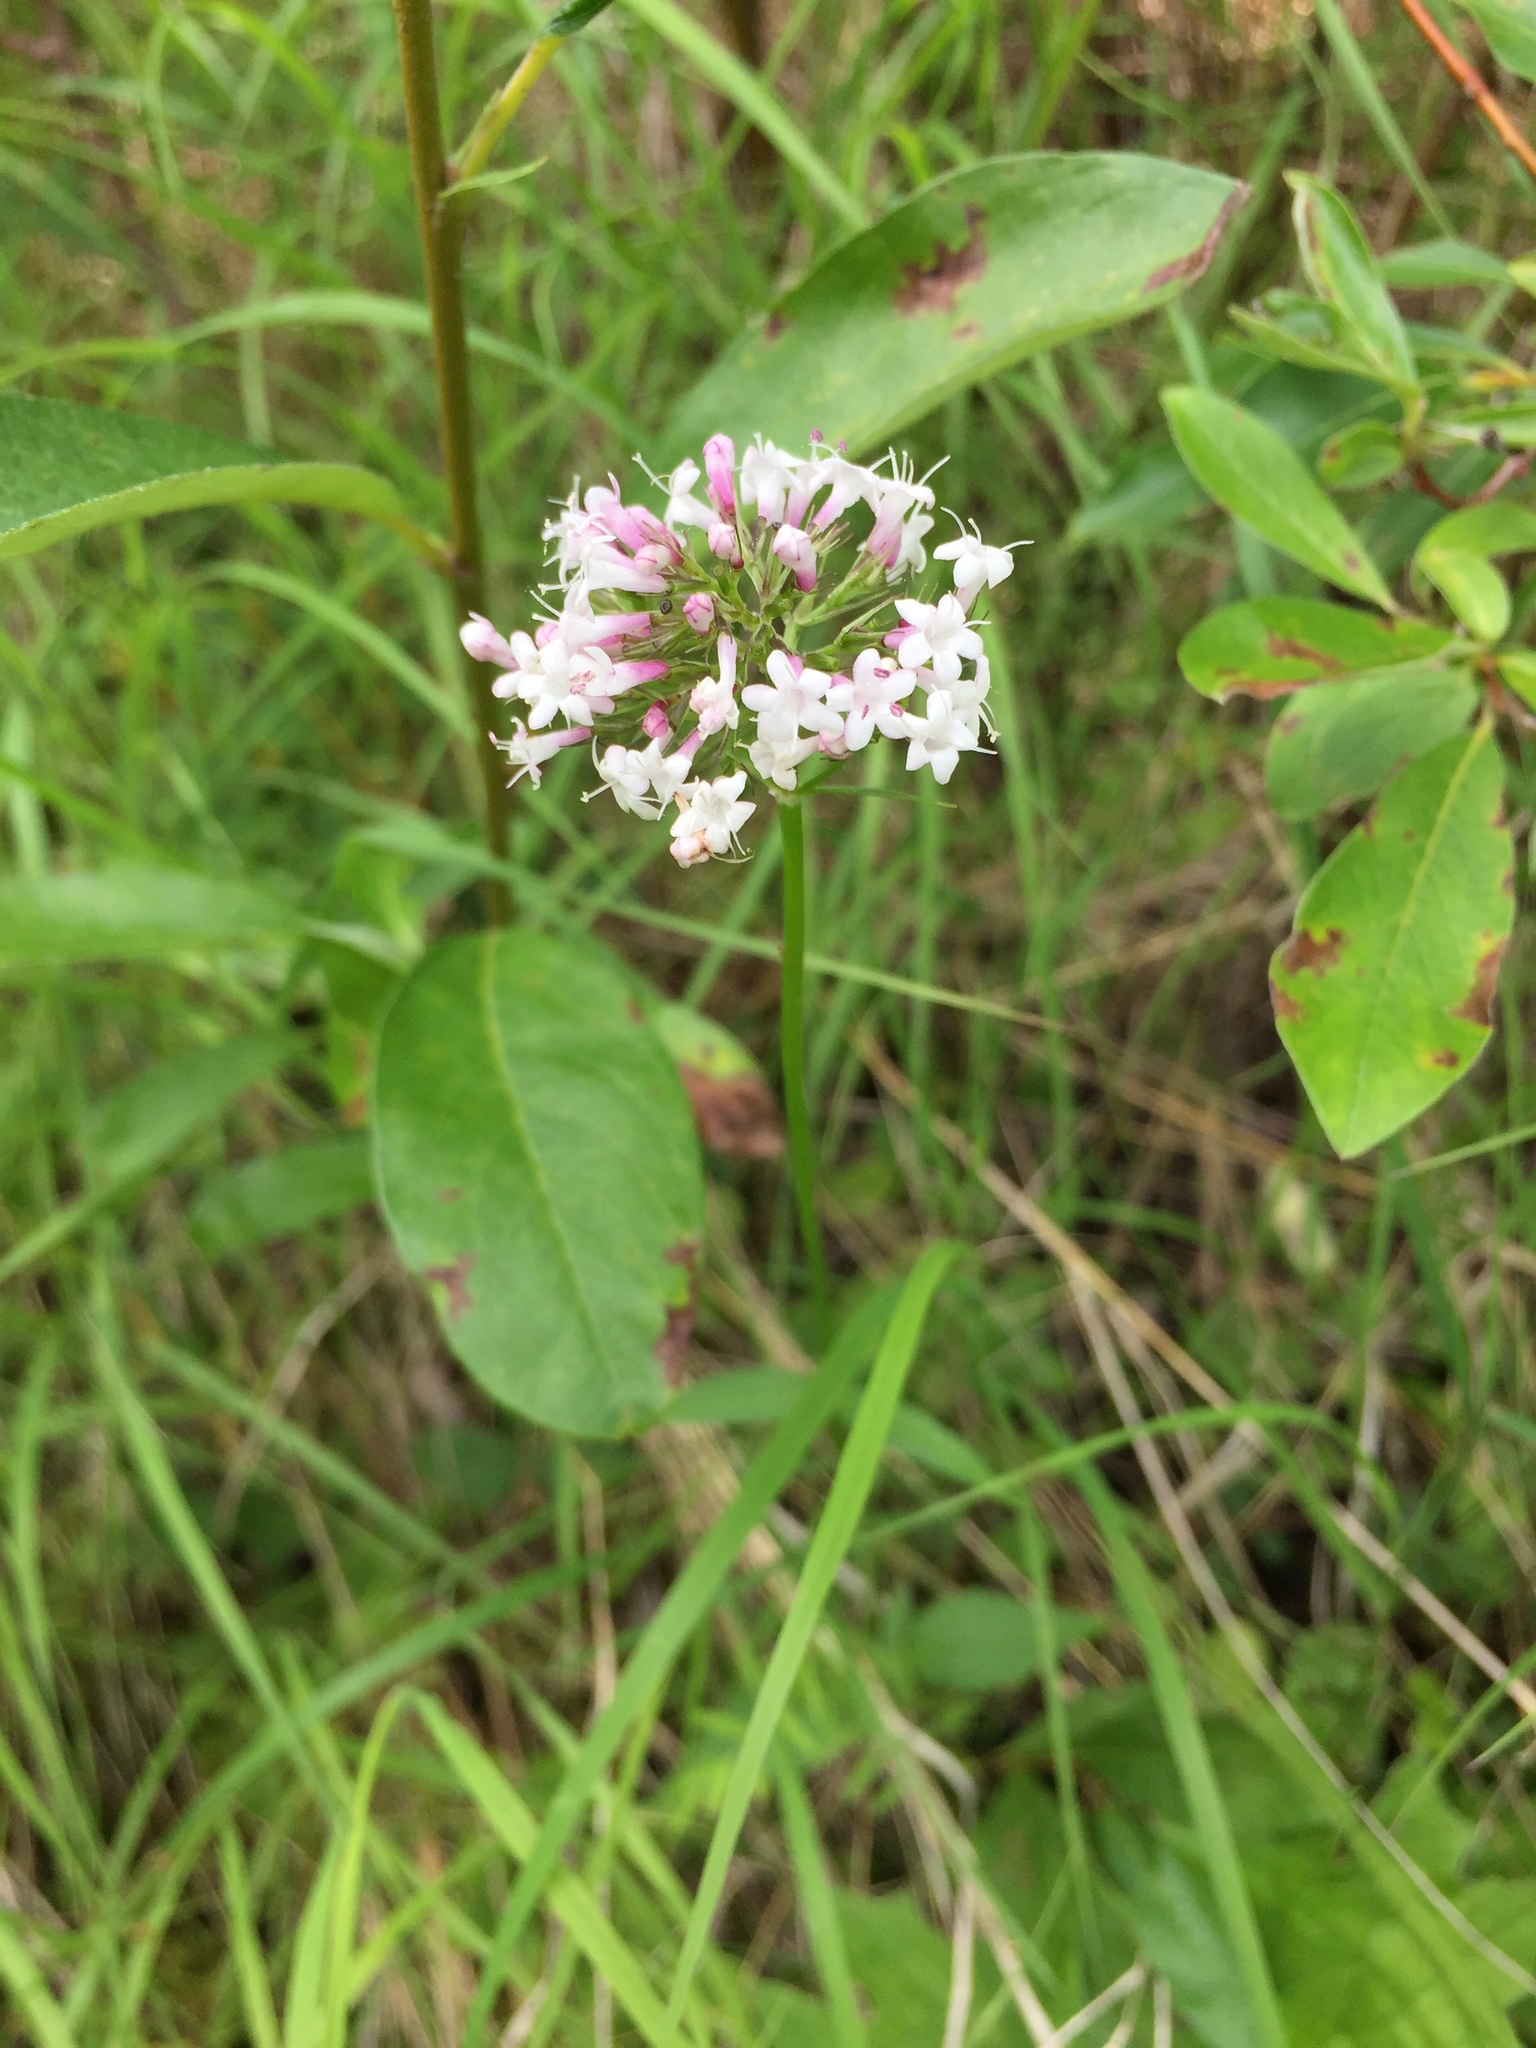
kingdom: Plantae
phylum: Tracheophyta
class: Magnoliopsida
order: Dipsacales
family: Caprifoliaceae
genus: Valeriana
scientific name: Valeriana capitata
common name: Capitate valerian
